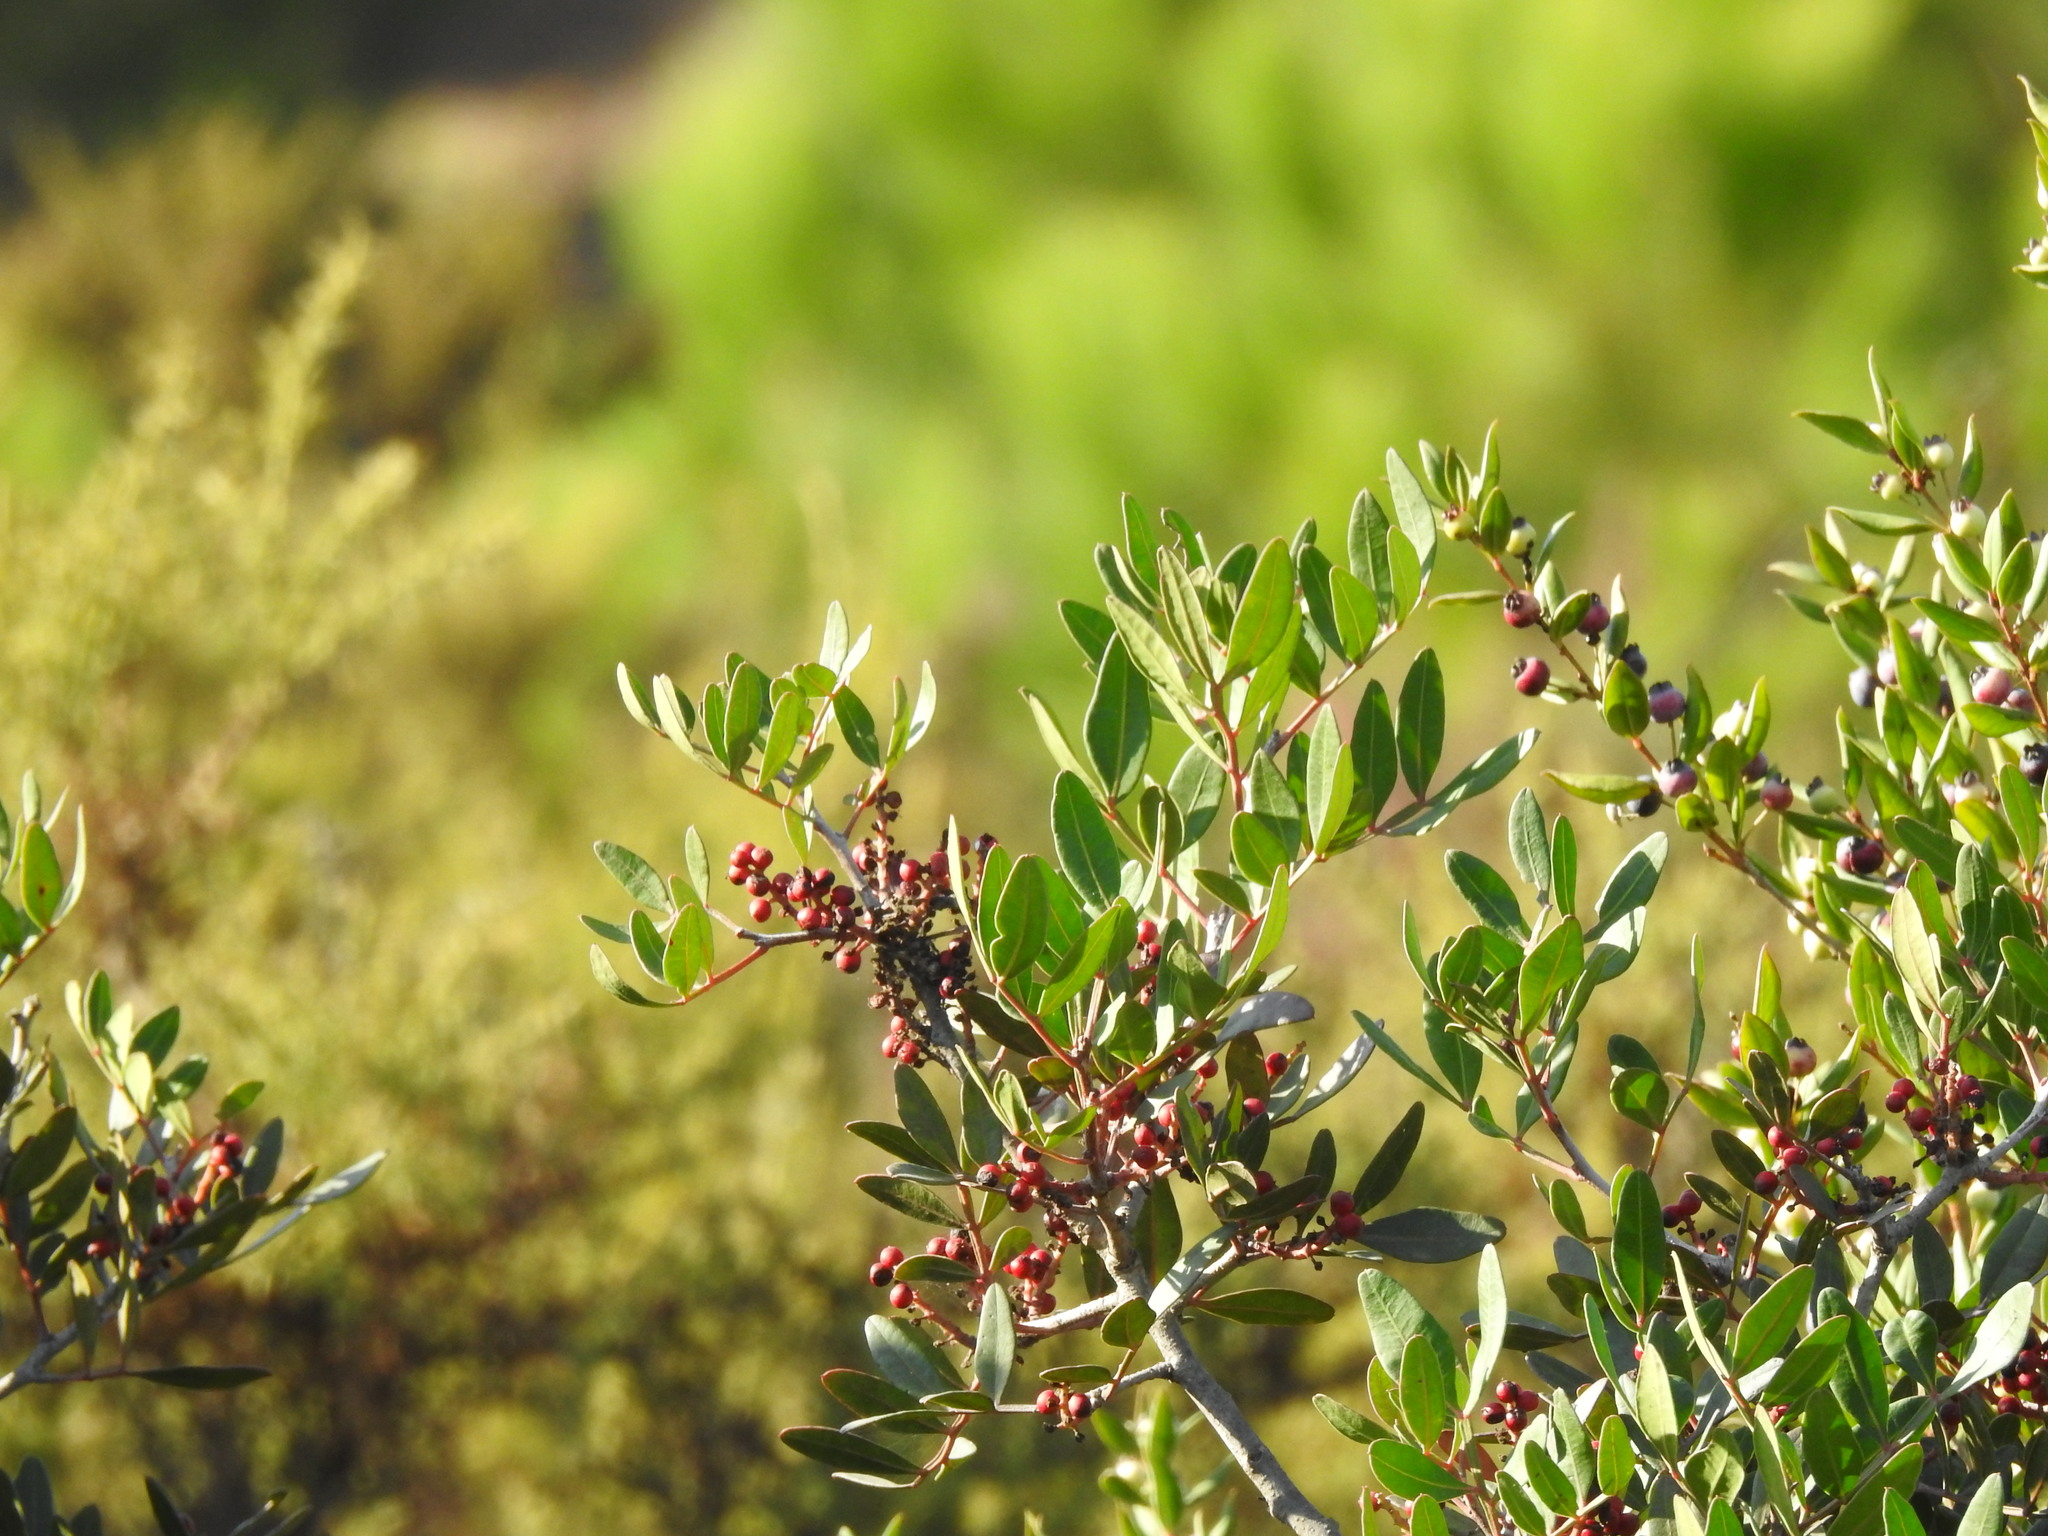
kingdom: Plantae
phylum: Tracheophyta
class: Magnoliopsida
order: Sapindales
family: Anacardiaceae
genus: Pistacia
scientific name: Pistacia lentiscus
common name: Lentisk
